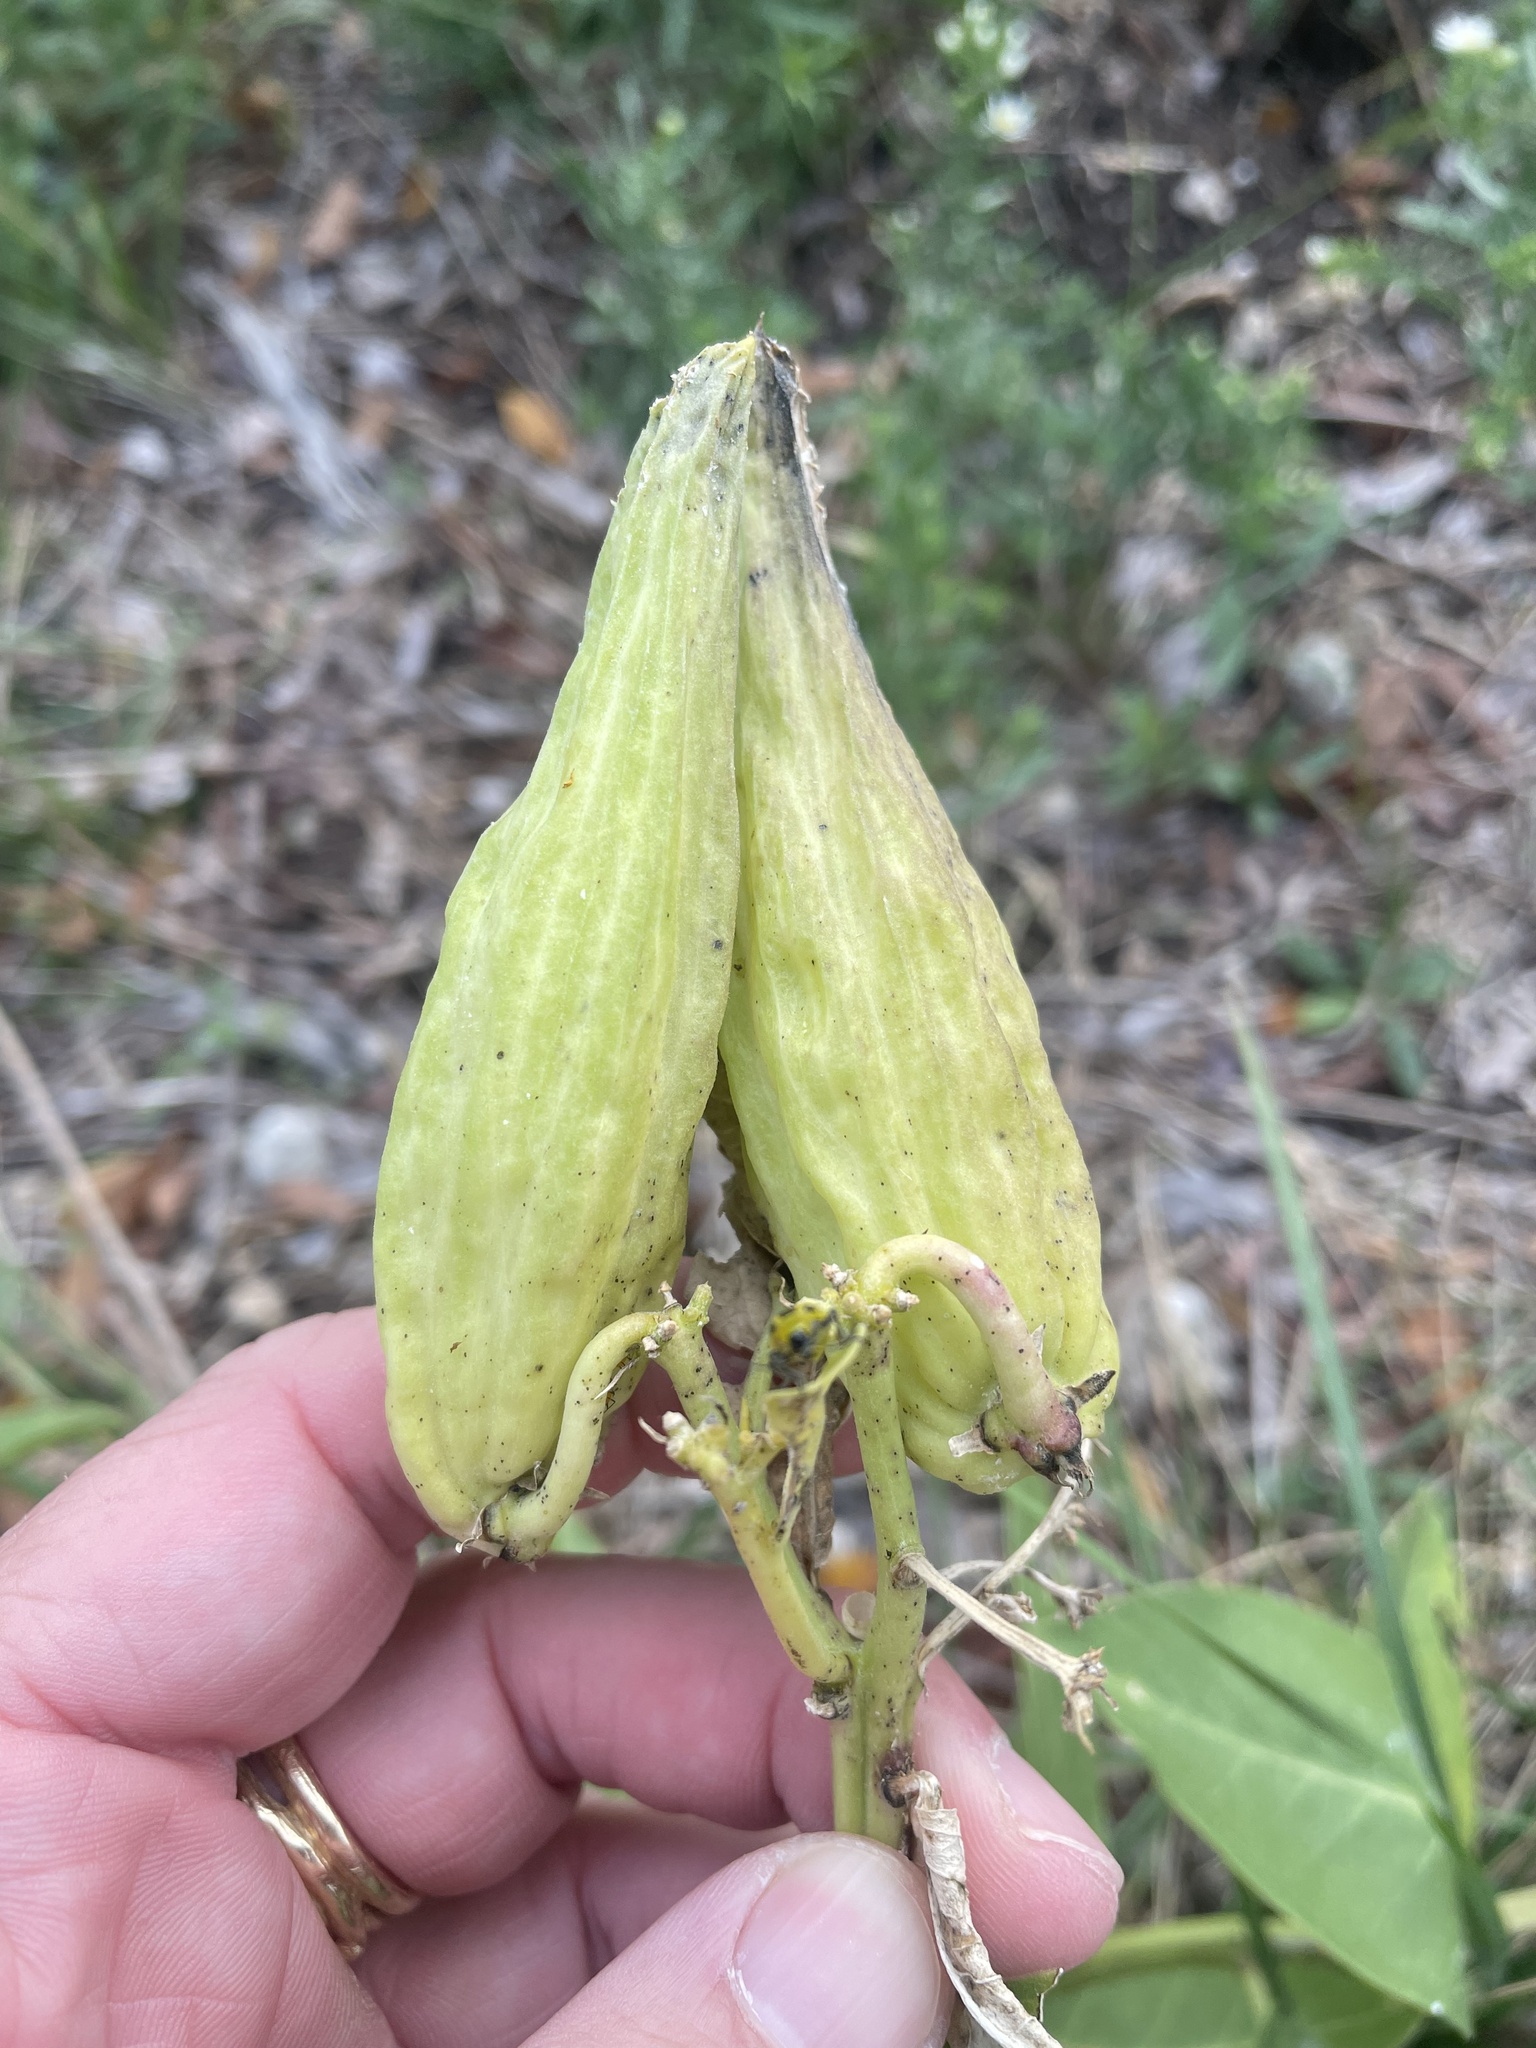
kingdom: Plantae
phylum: Tracheophyta
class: Magnoliopsida
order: Gentianales
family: Apocynaceae
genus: Asclepias
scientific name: Asclepias viridis
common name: Antelope-horns
